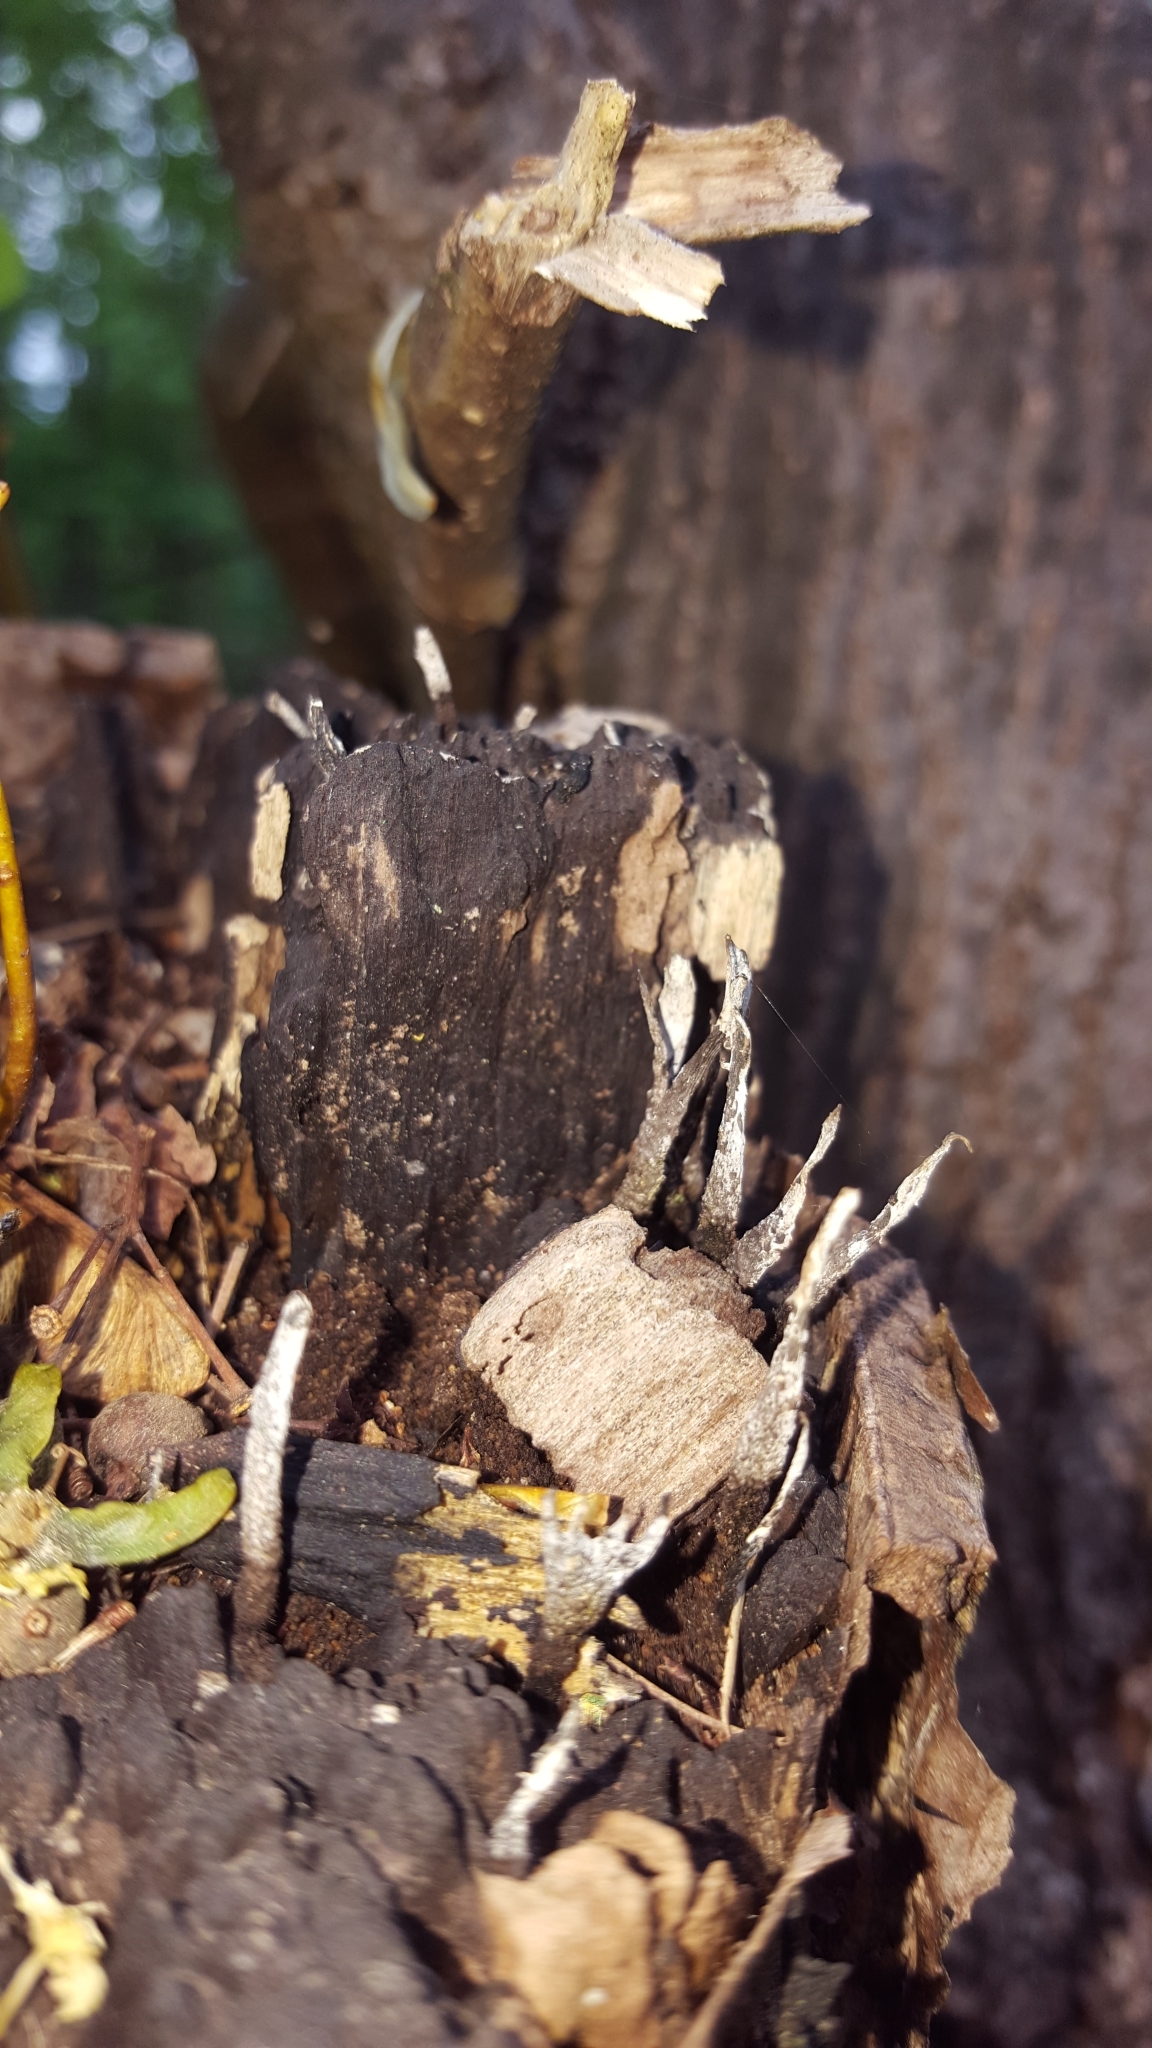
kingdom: Fungi
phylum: Ascomycota
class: Sordariomycetes
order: Xylariales
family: Xylariaceae
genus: Xylaria
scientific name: Xylaria hypoxylon
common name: Candle-snuff fungus
